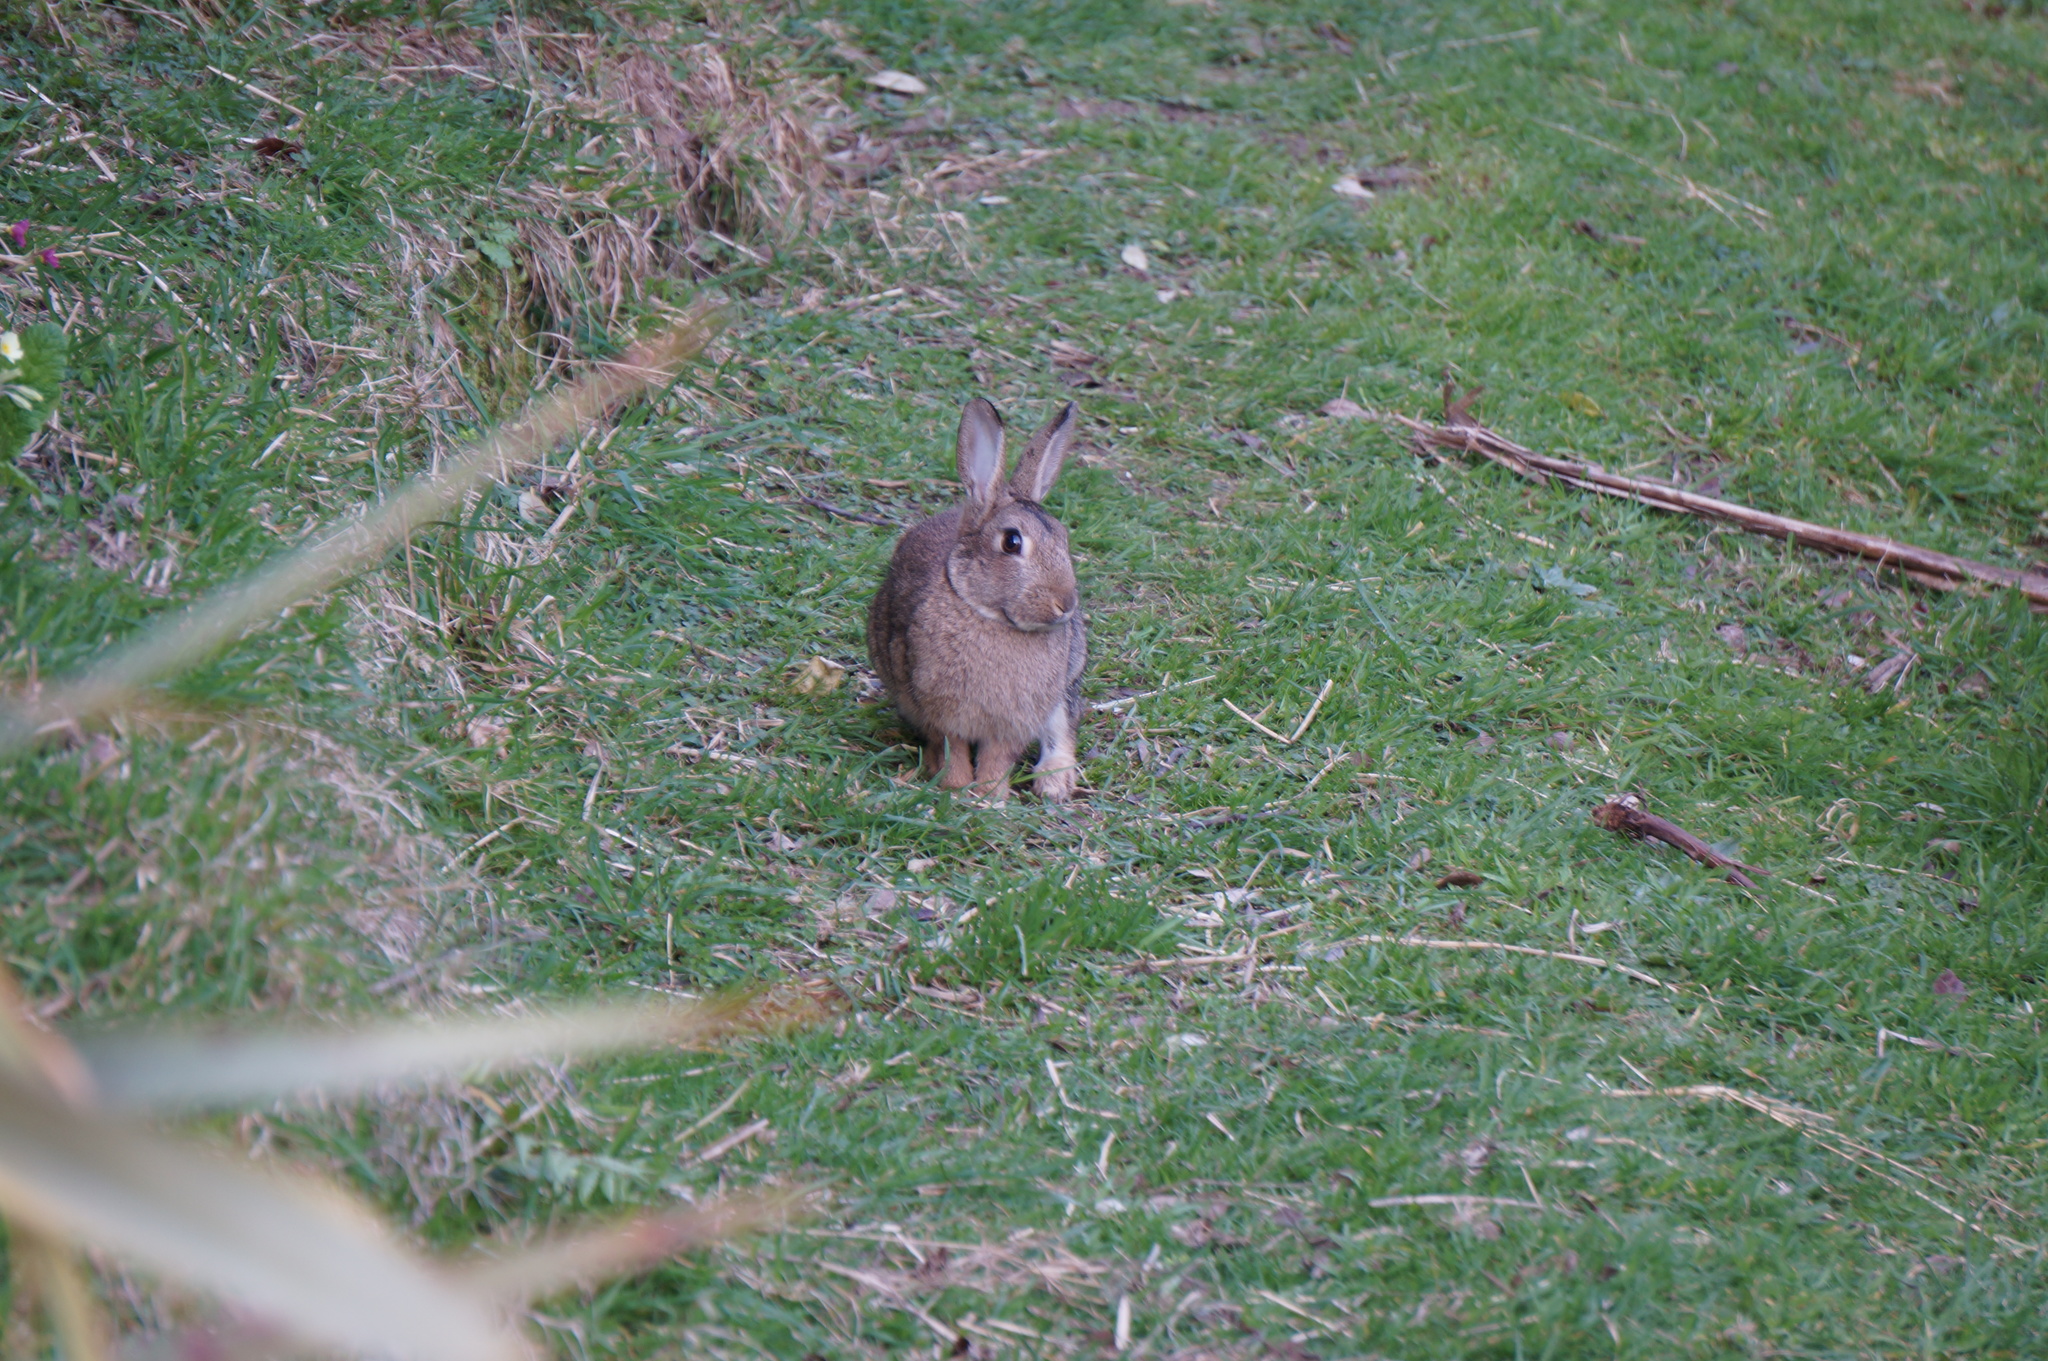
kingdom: Animalia
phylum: Chordata
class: Mammalia
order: Lagomorpha
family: Leporidae
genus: Oryctolagus
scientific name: Oryctolagus cuniculus
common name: European rabbit
